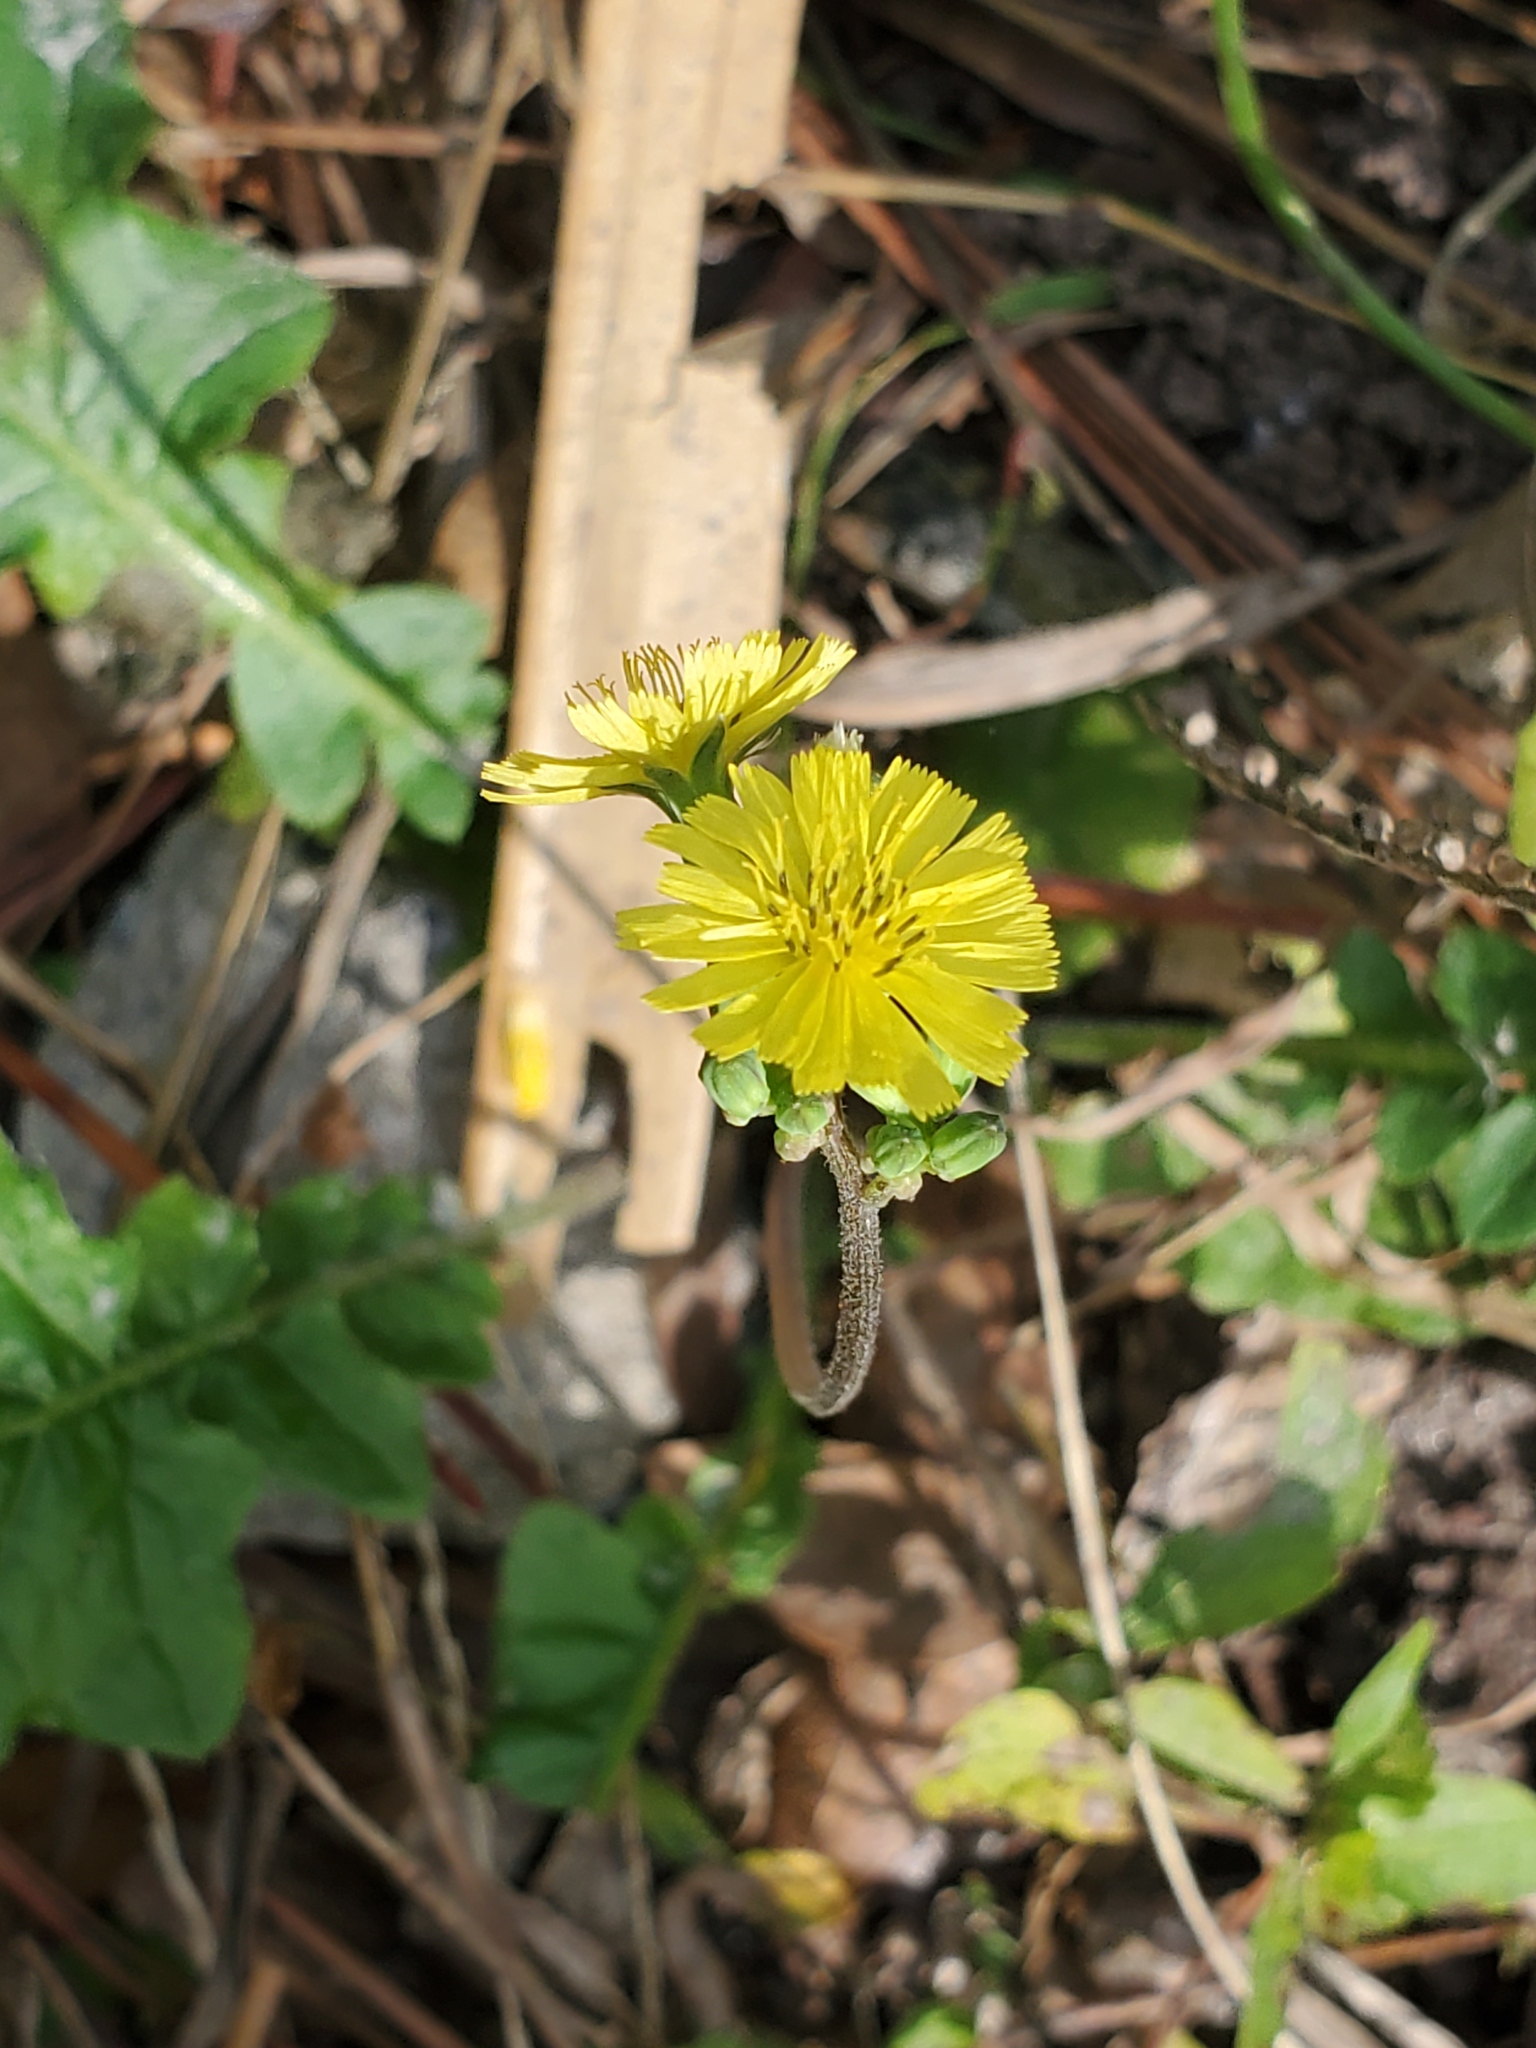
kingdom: Plantae
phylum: Tracheophyta
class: Magnoliopsida
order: Asterales
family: Asteraceae
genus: Youngia
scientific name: Youngia japonica
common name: Oriental false hawksbeard
